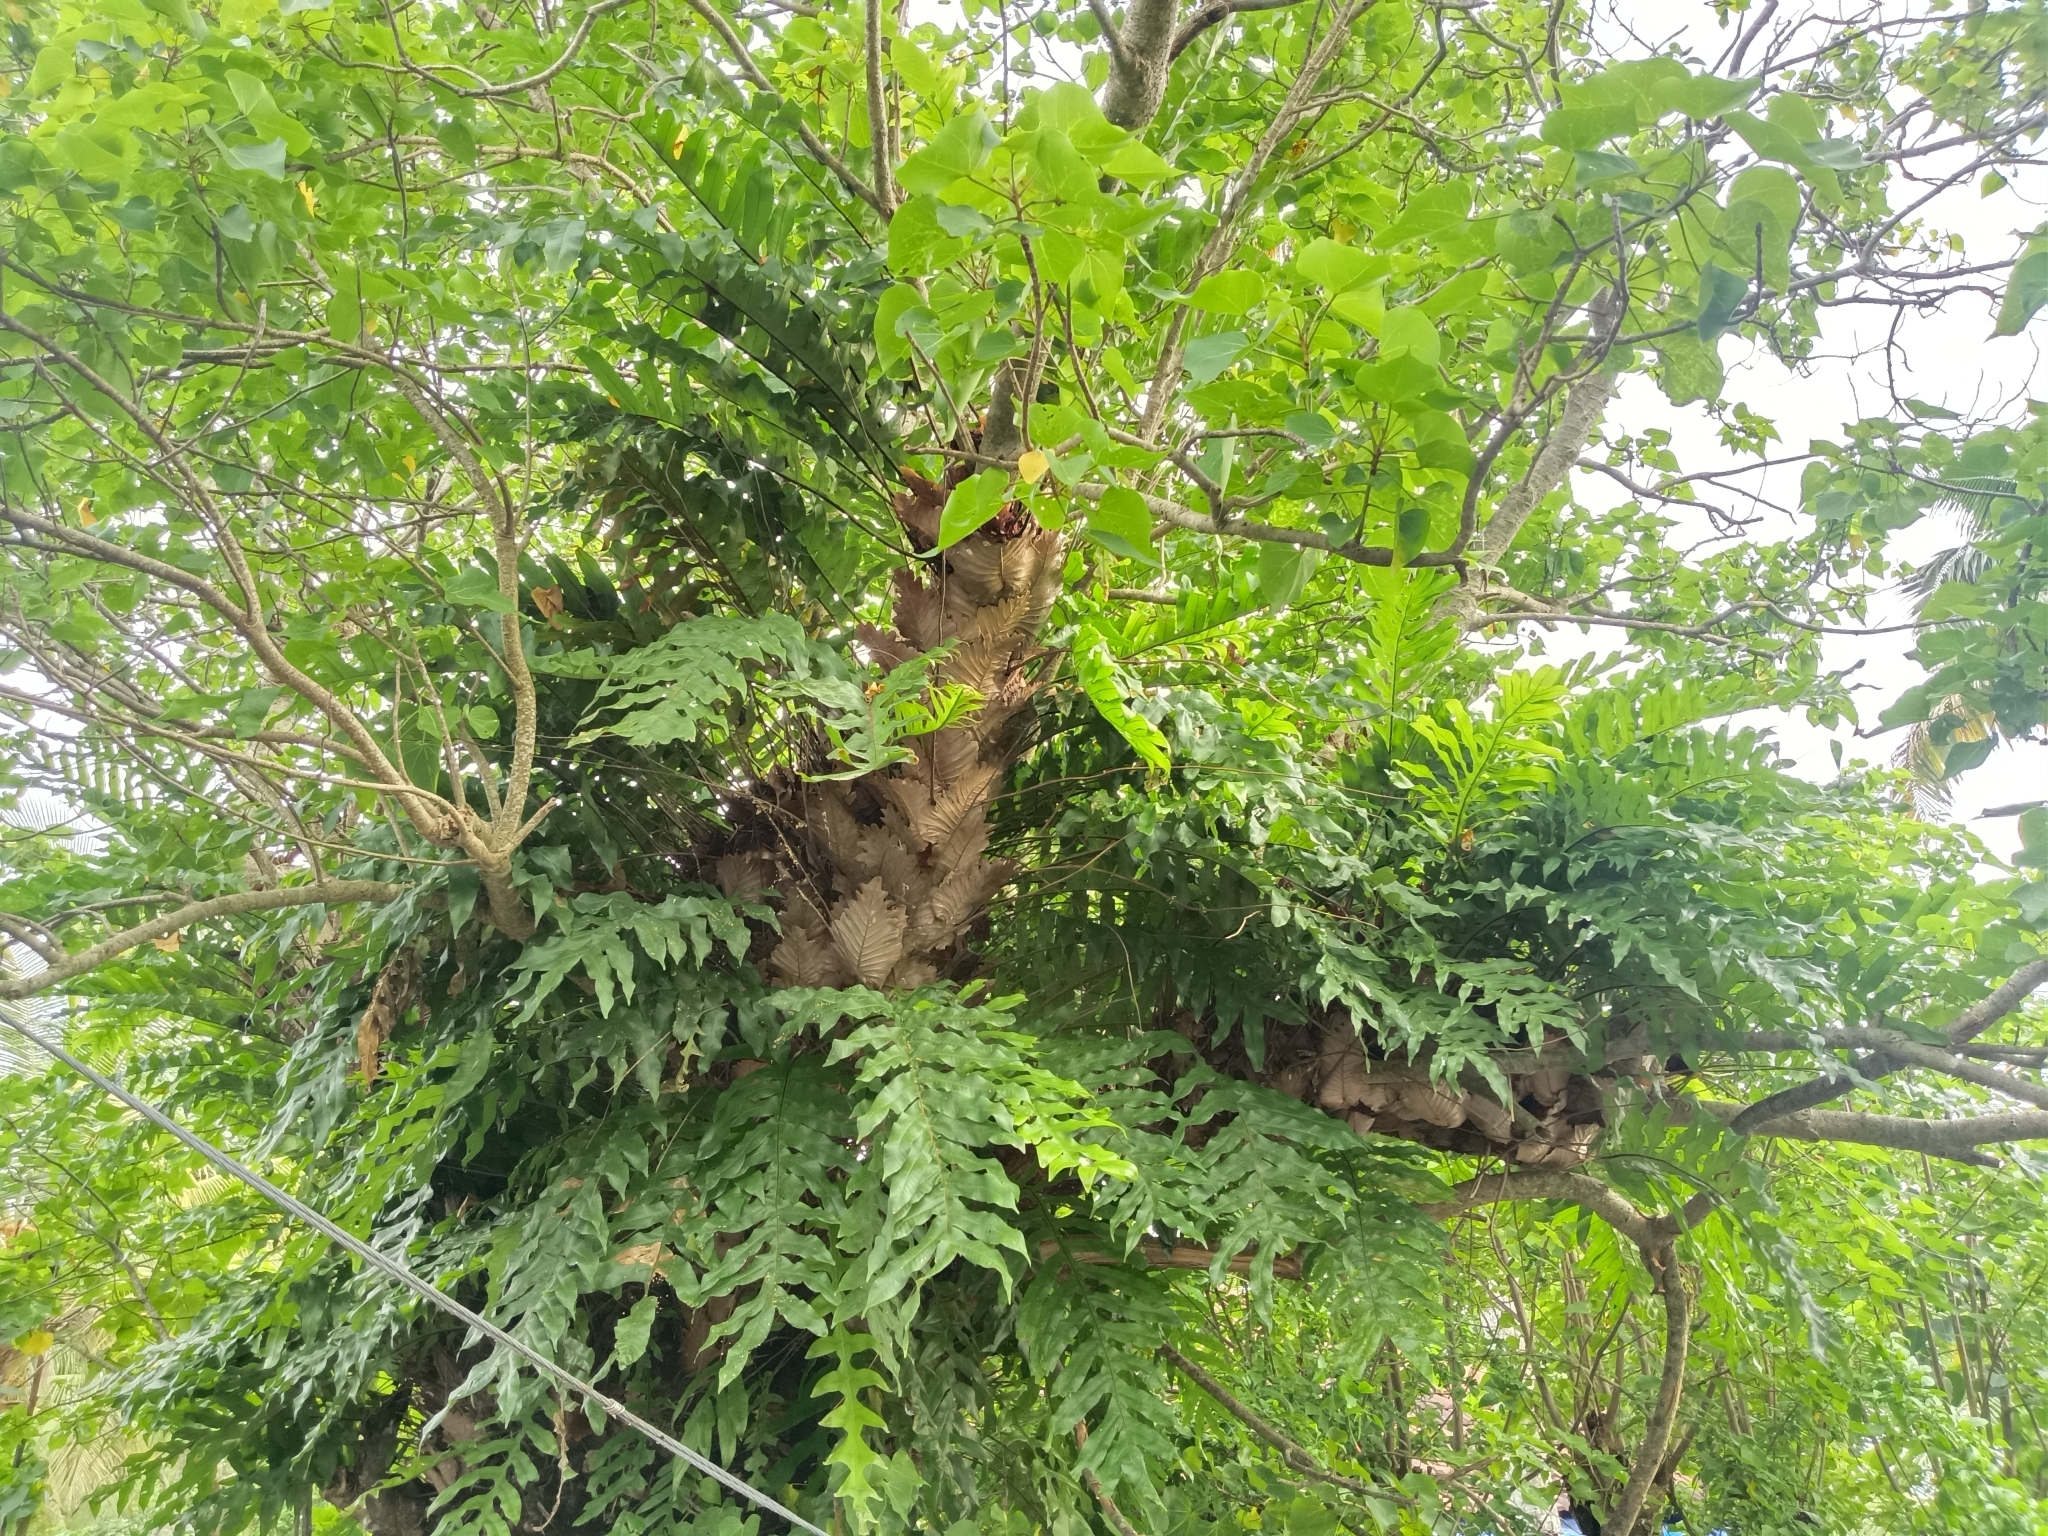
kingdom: Plantae
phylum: Tracheophyta
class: Polypodiopsida
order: Polypodiales
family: Polypodiaceae
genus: Drynaria
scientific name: Drynaria quercifolia
